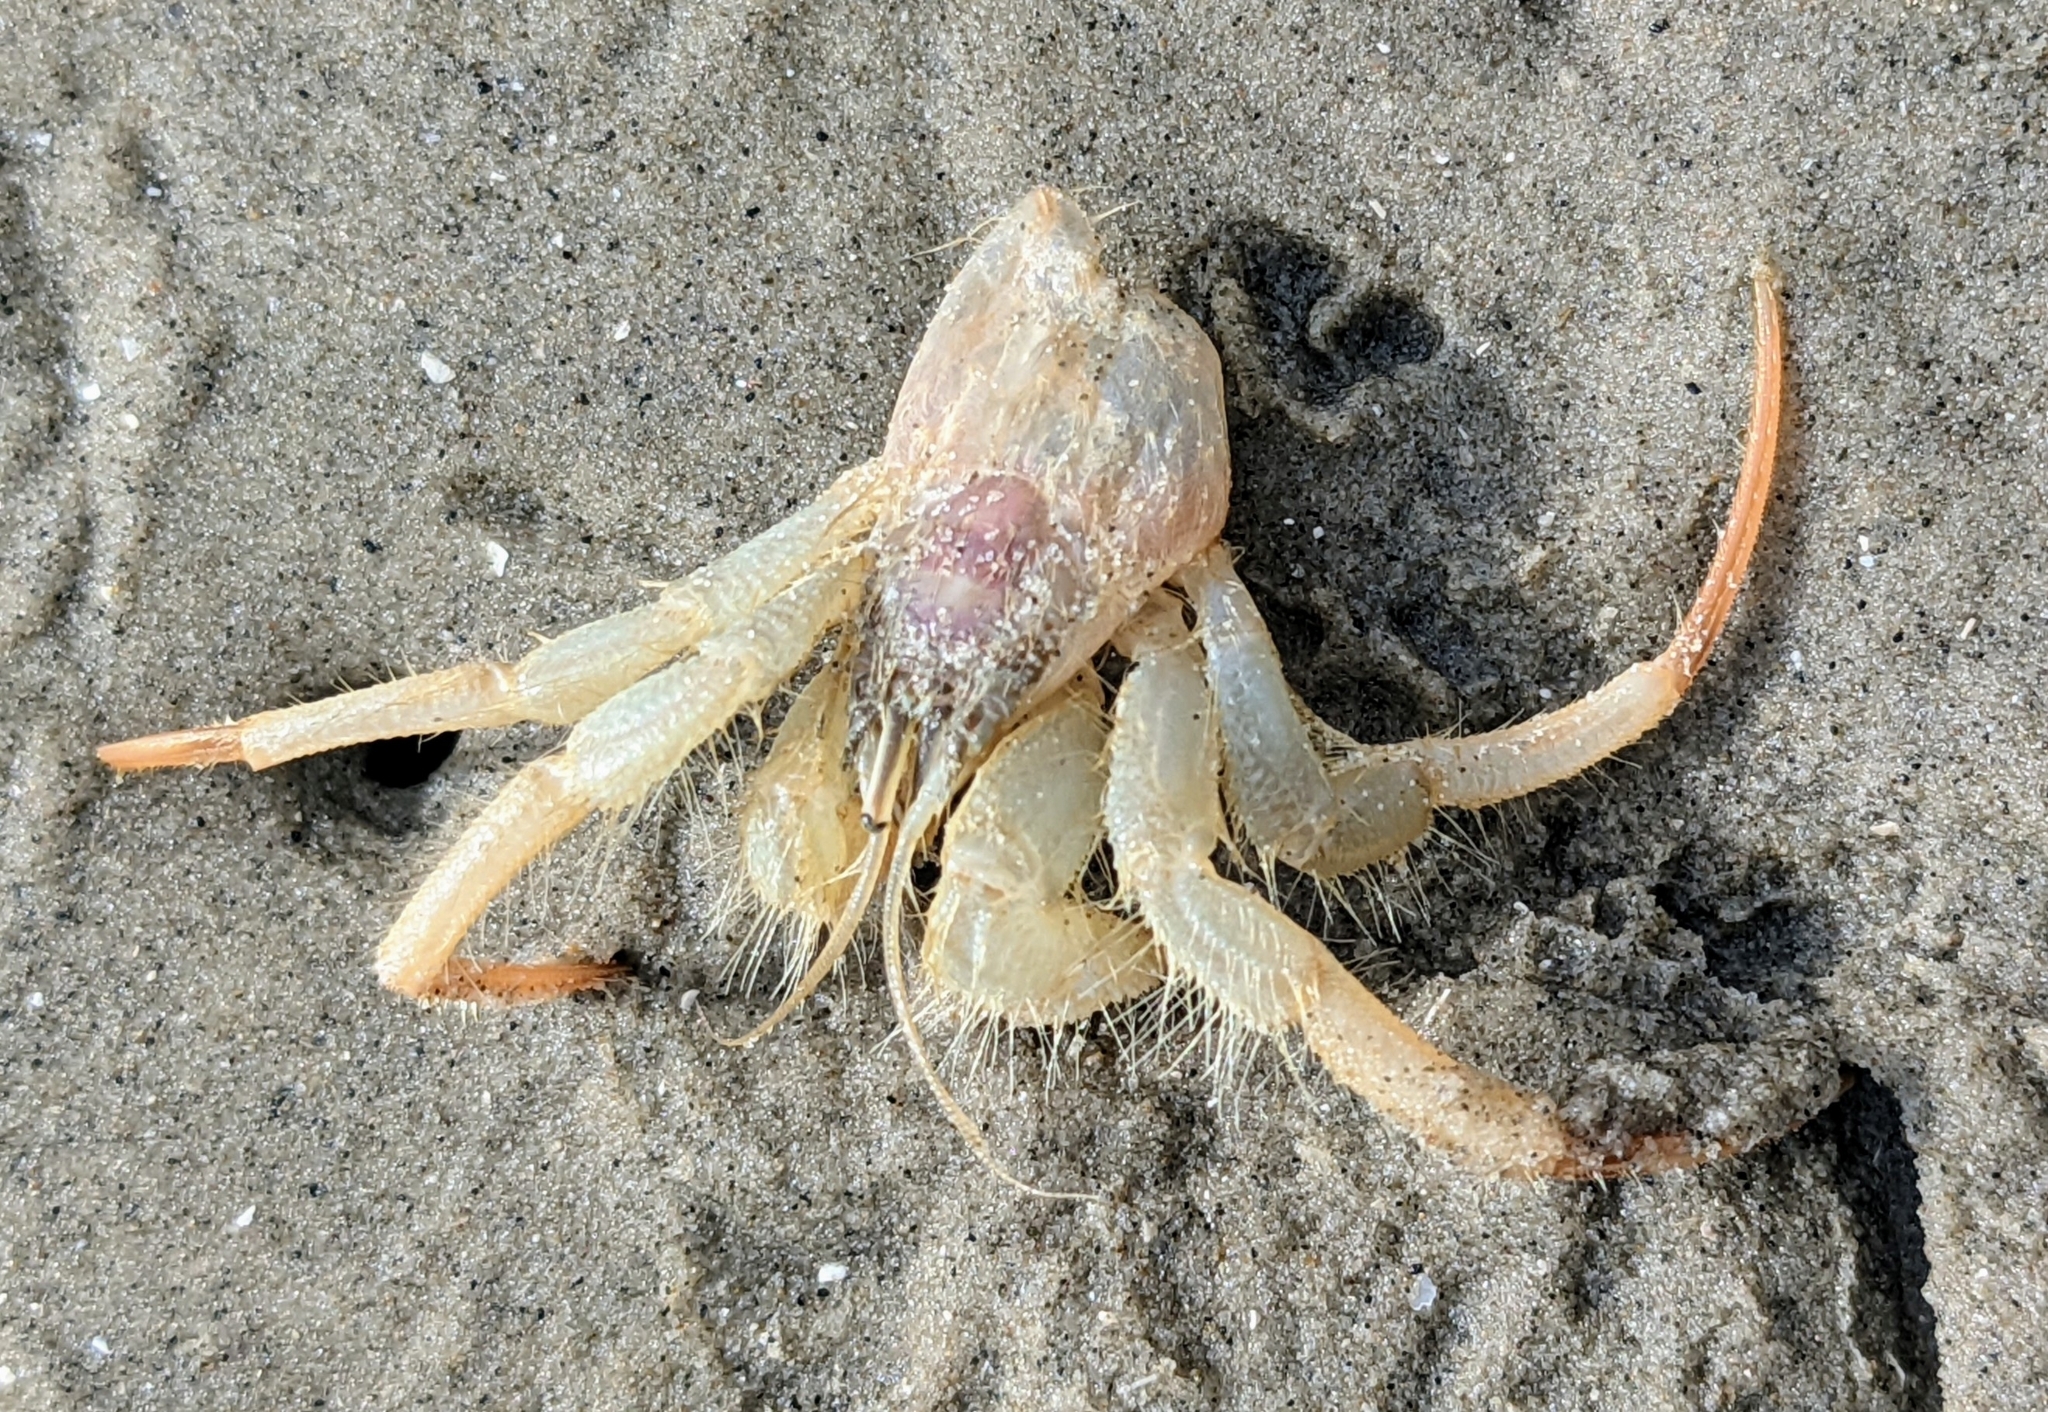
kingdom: Animalia
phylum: Arthropoda
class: Malacostraca
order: Decapoda
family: Diogenidae
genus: Isocheles
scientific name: Isocheles wurdemanni
